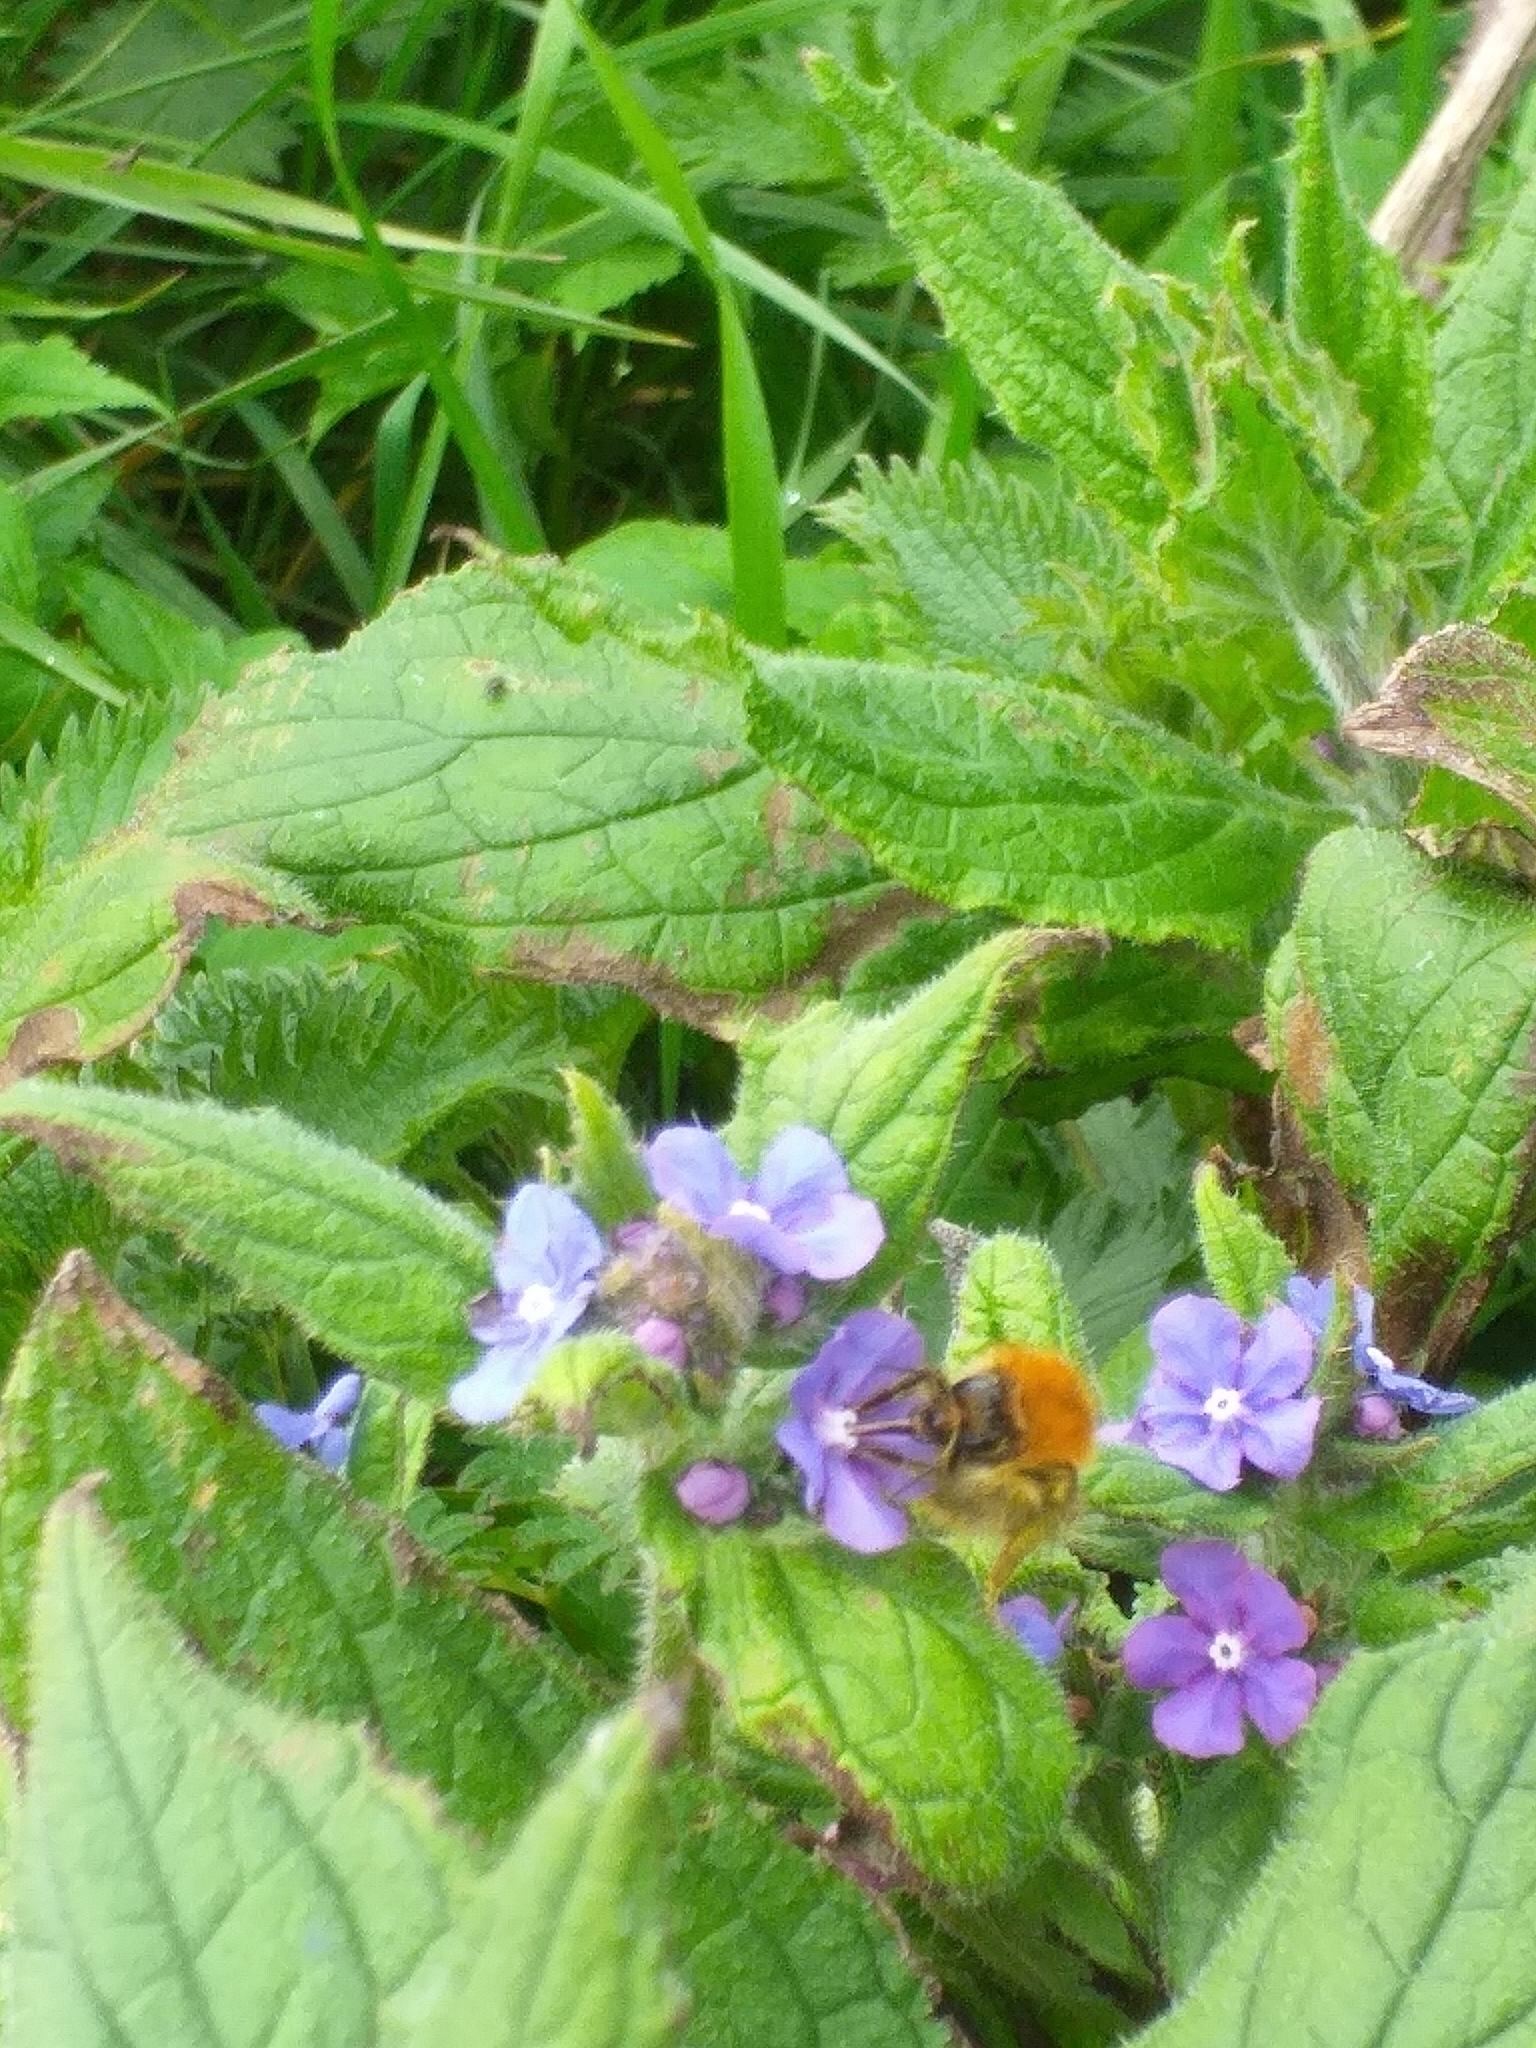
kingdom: Animalia
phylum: Arthropoda
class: Insecta
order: Hymenoptera
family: Apidae
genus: Bombus
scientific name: Bombus pascuorum
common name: Common carder bee
